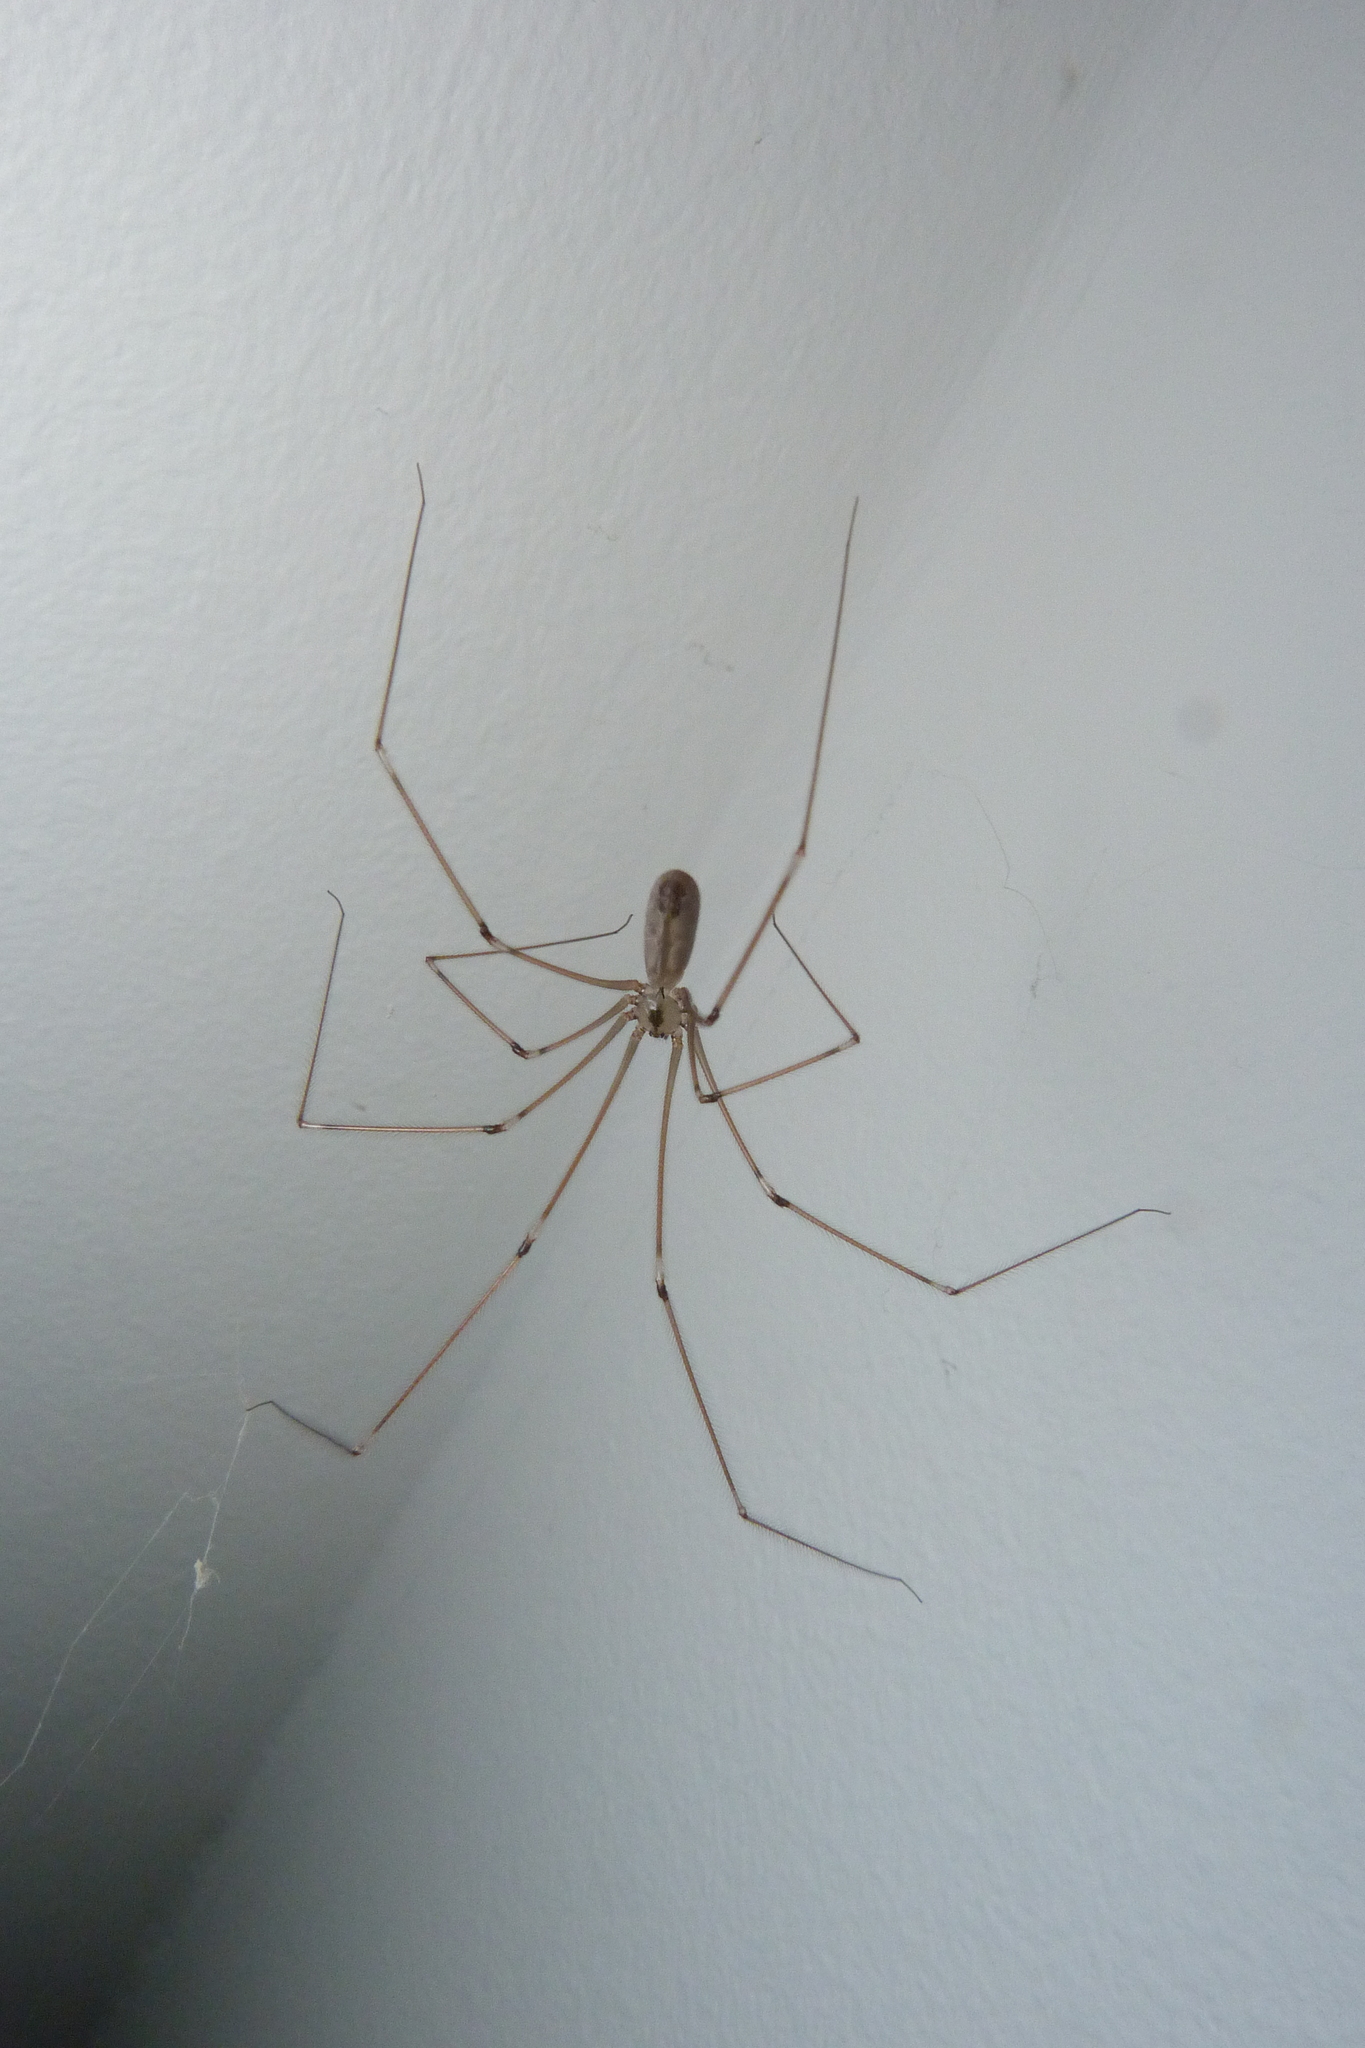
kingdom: Animalia
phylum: Arthropoda
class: Arachnida
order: Araneae
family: Pholcidae
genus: Pholcus
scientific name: Pholcus phalangioides
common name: Longbodied cellar spider
